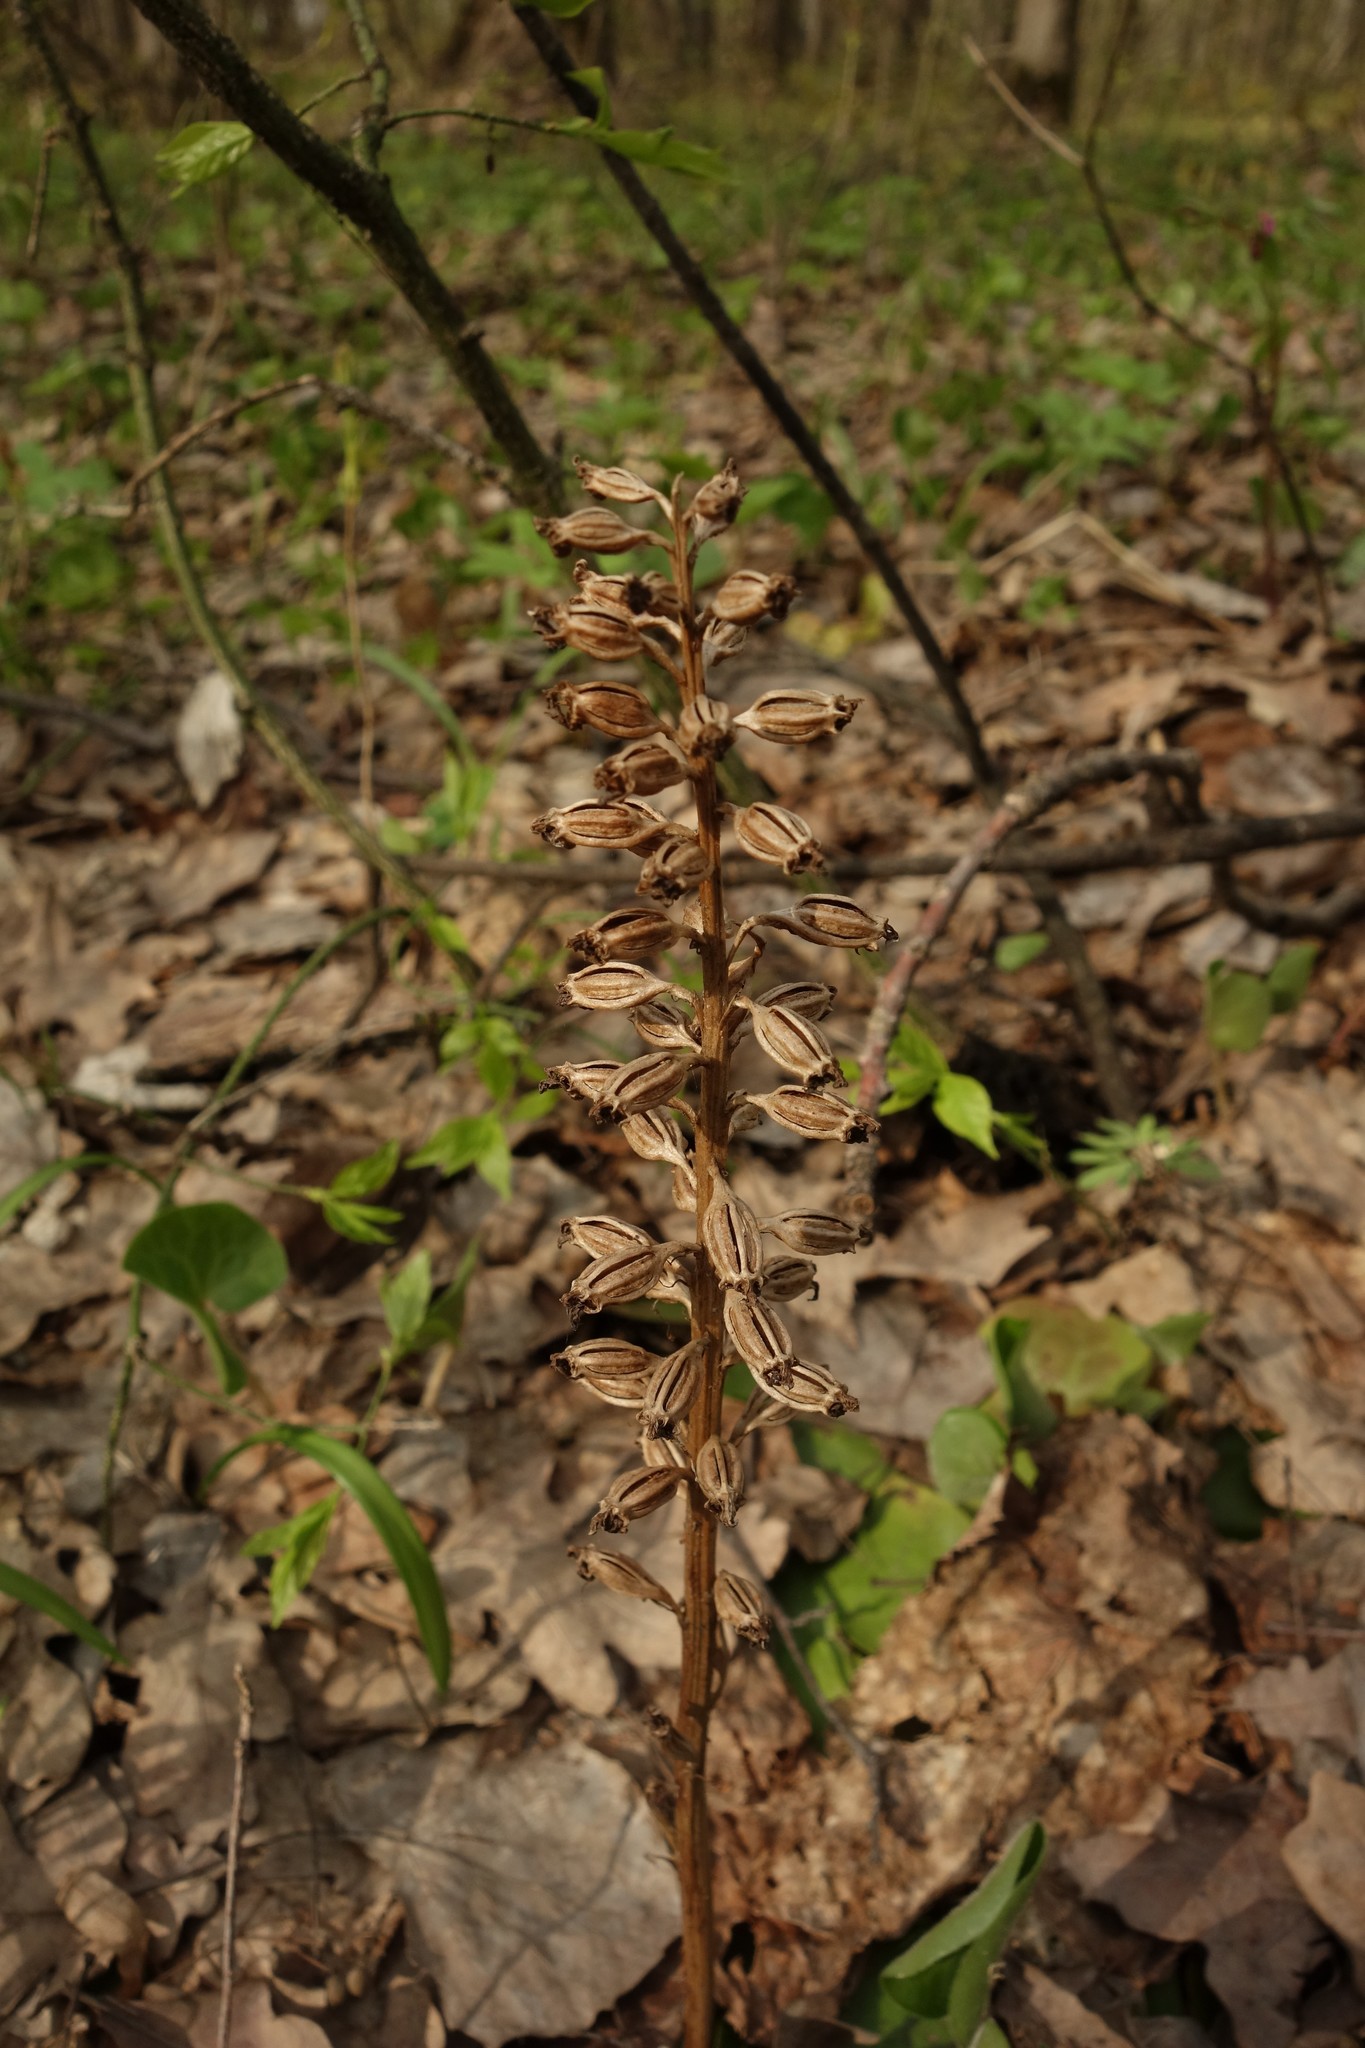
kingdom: Plantae
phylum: Tracheophyta
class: Liliopsida
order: Asparagales
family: Orchidaceae
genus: Neottia
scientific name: Neottia nidus-avis
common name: Bird's-nest orchid
